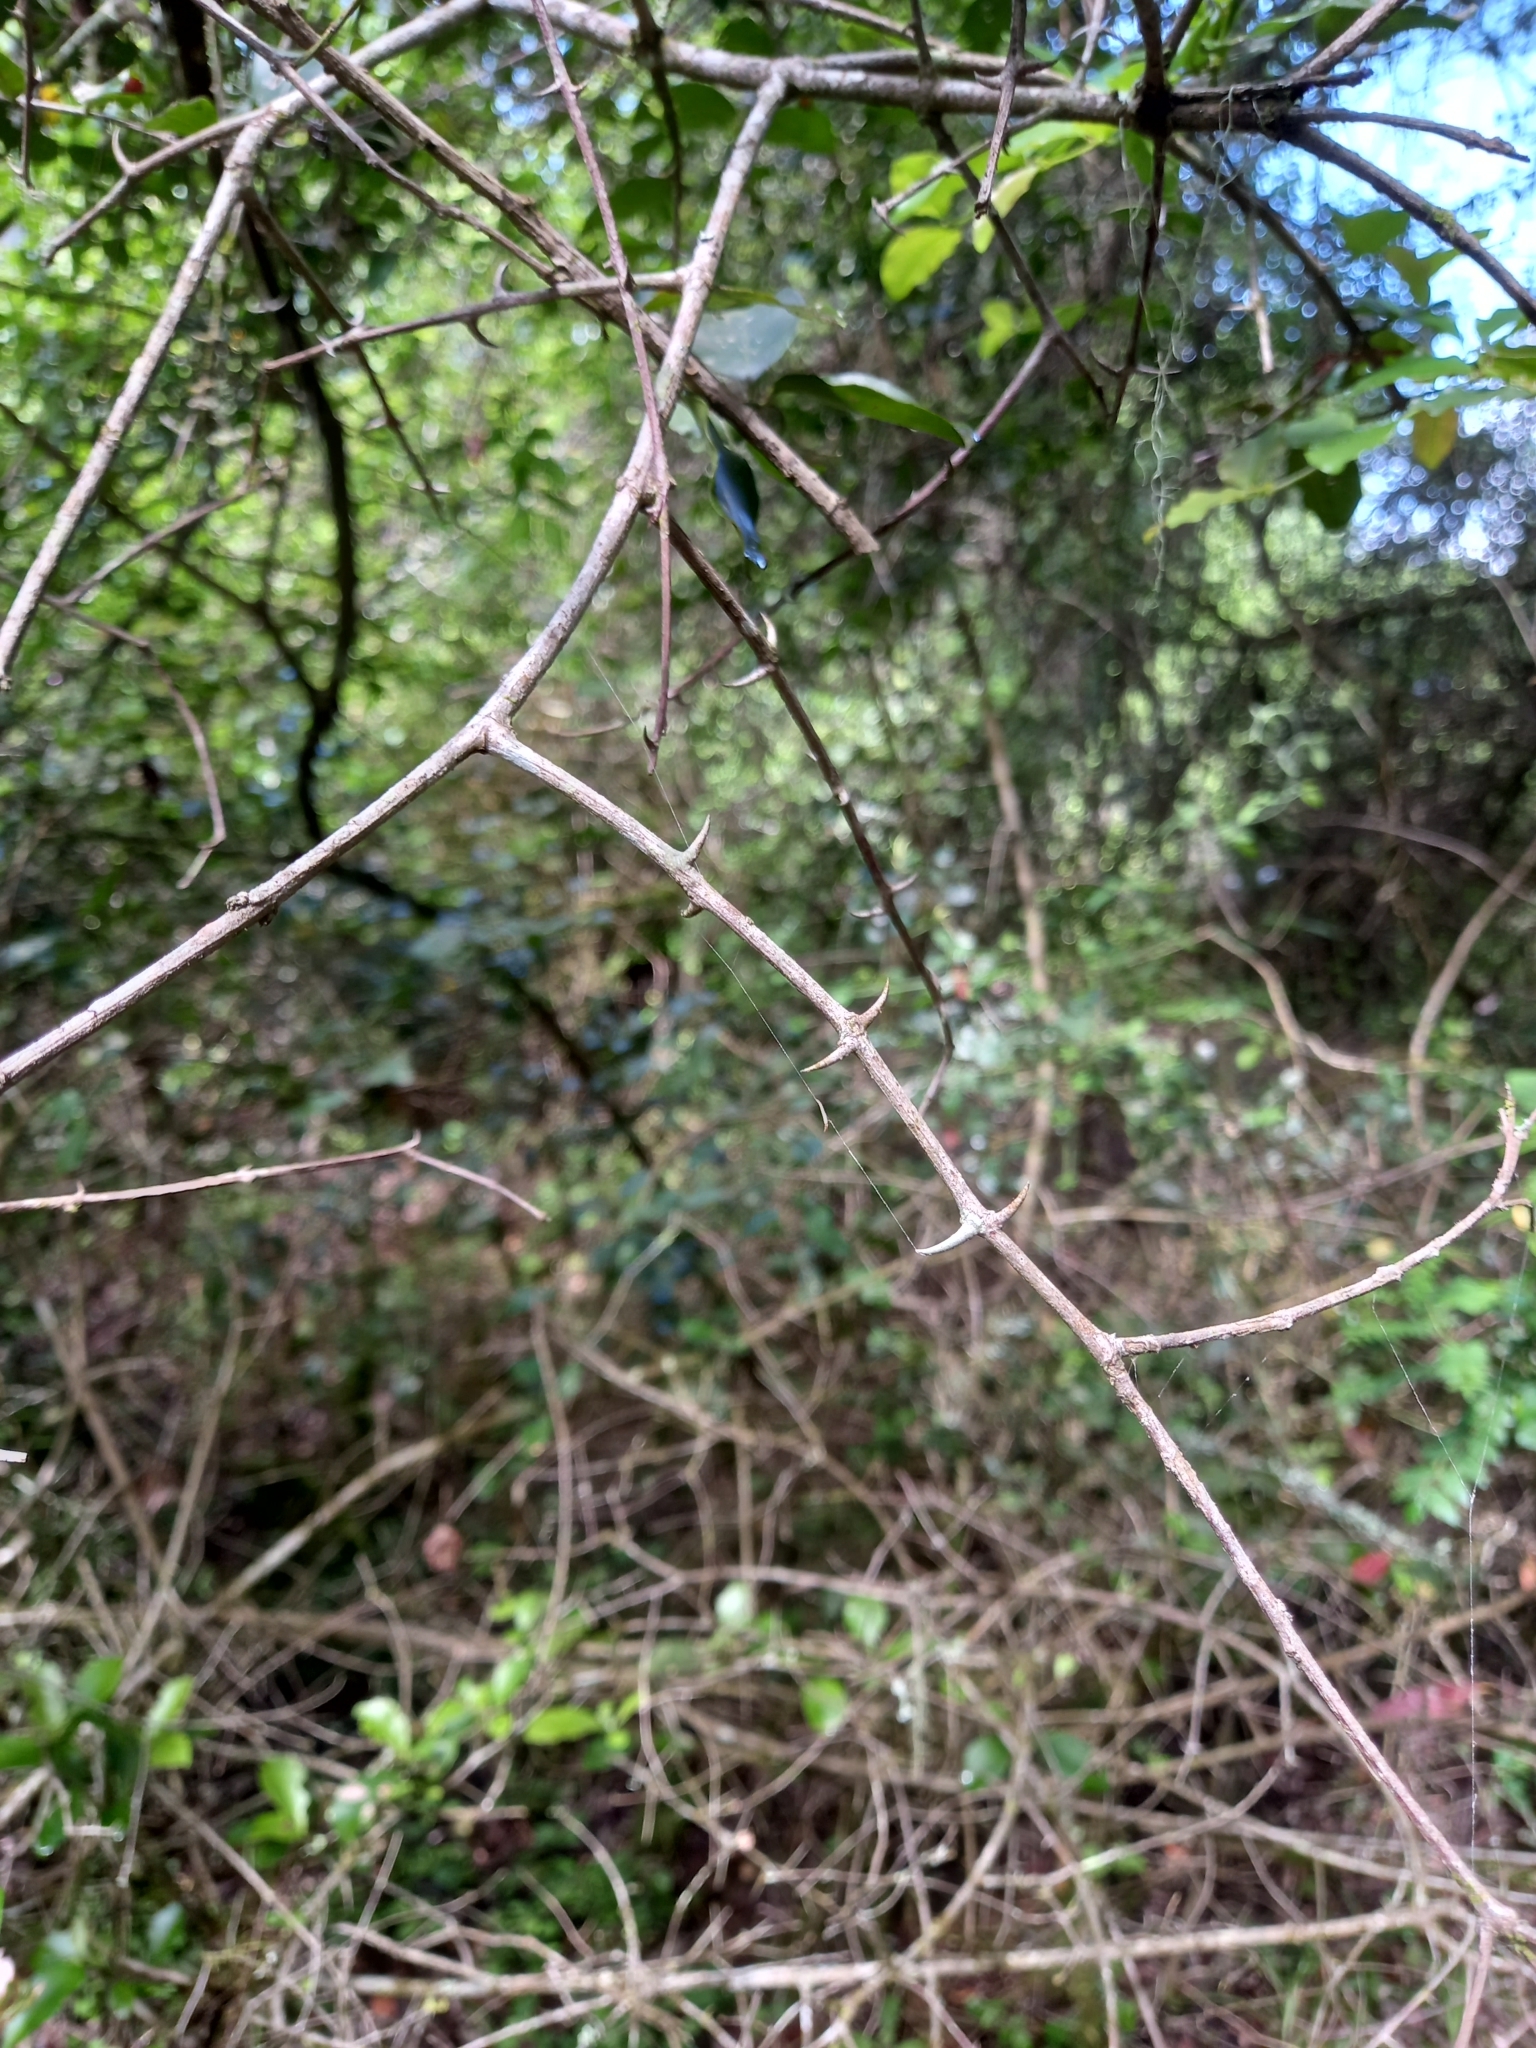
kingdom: Plantae
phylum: Tracheophyta
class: Magnoliopsida
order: Rosales
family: Rhamnaceae
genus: Scutia
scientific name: Scutia myrtina
